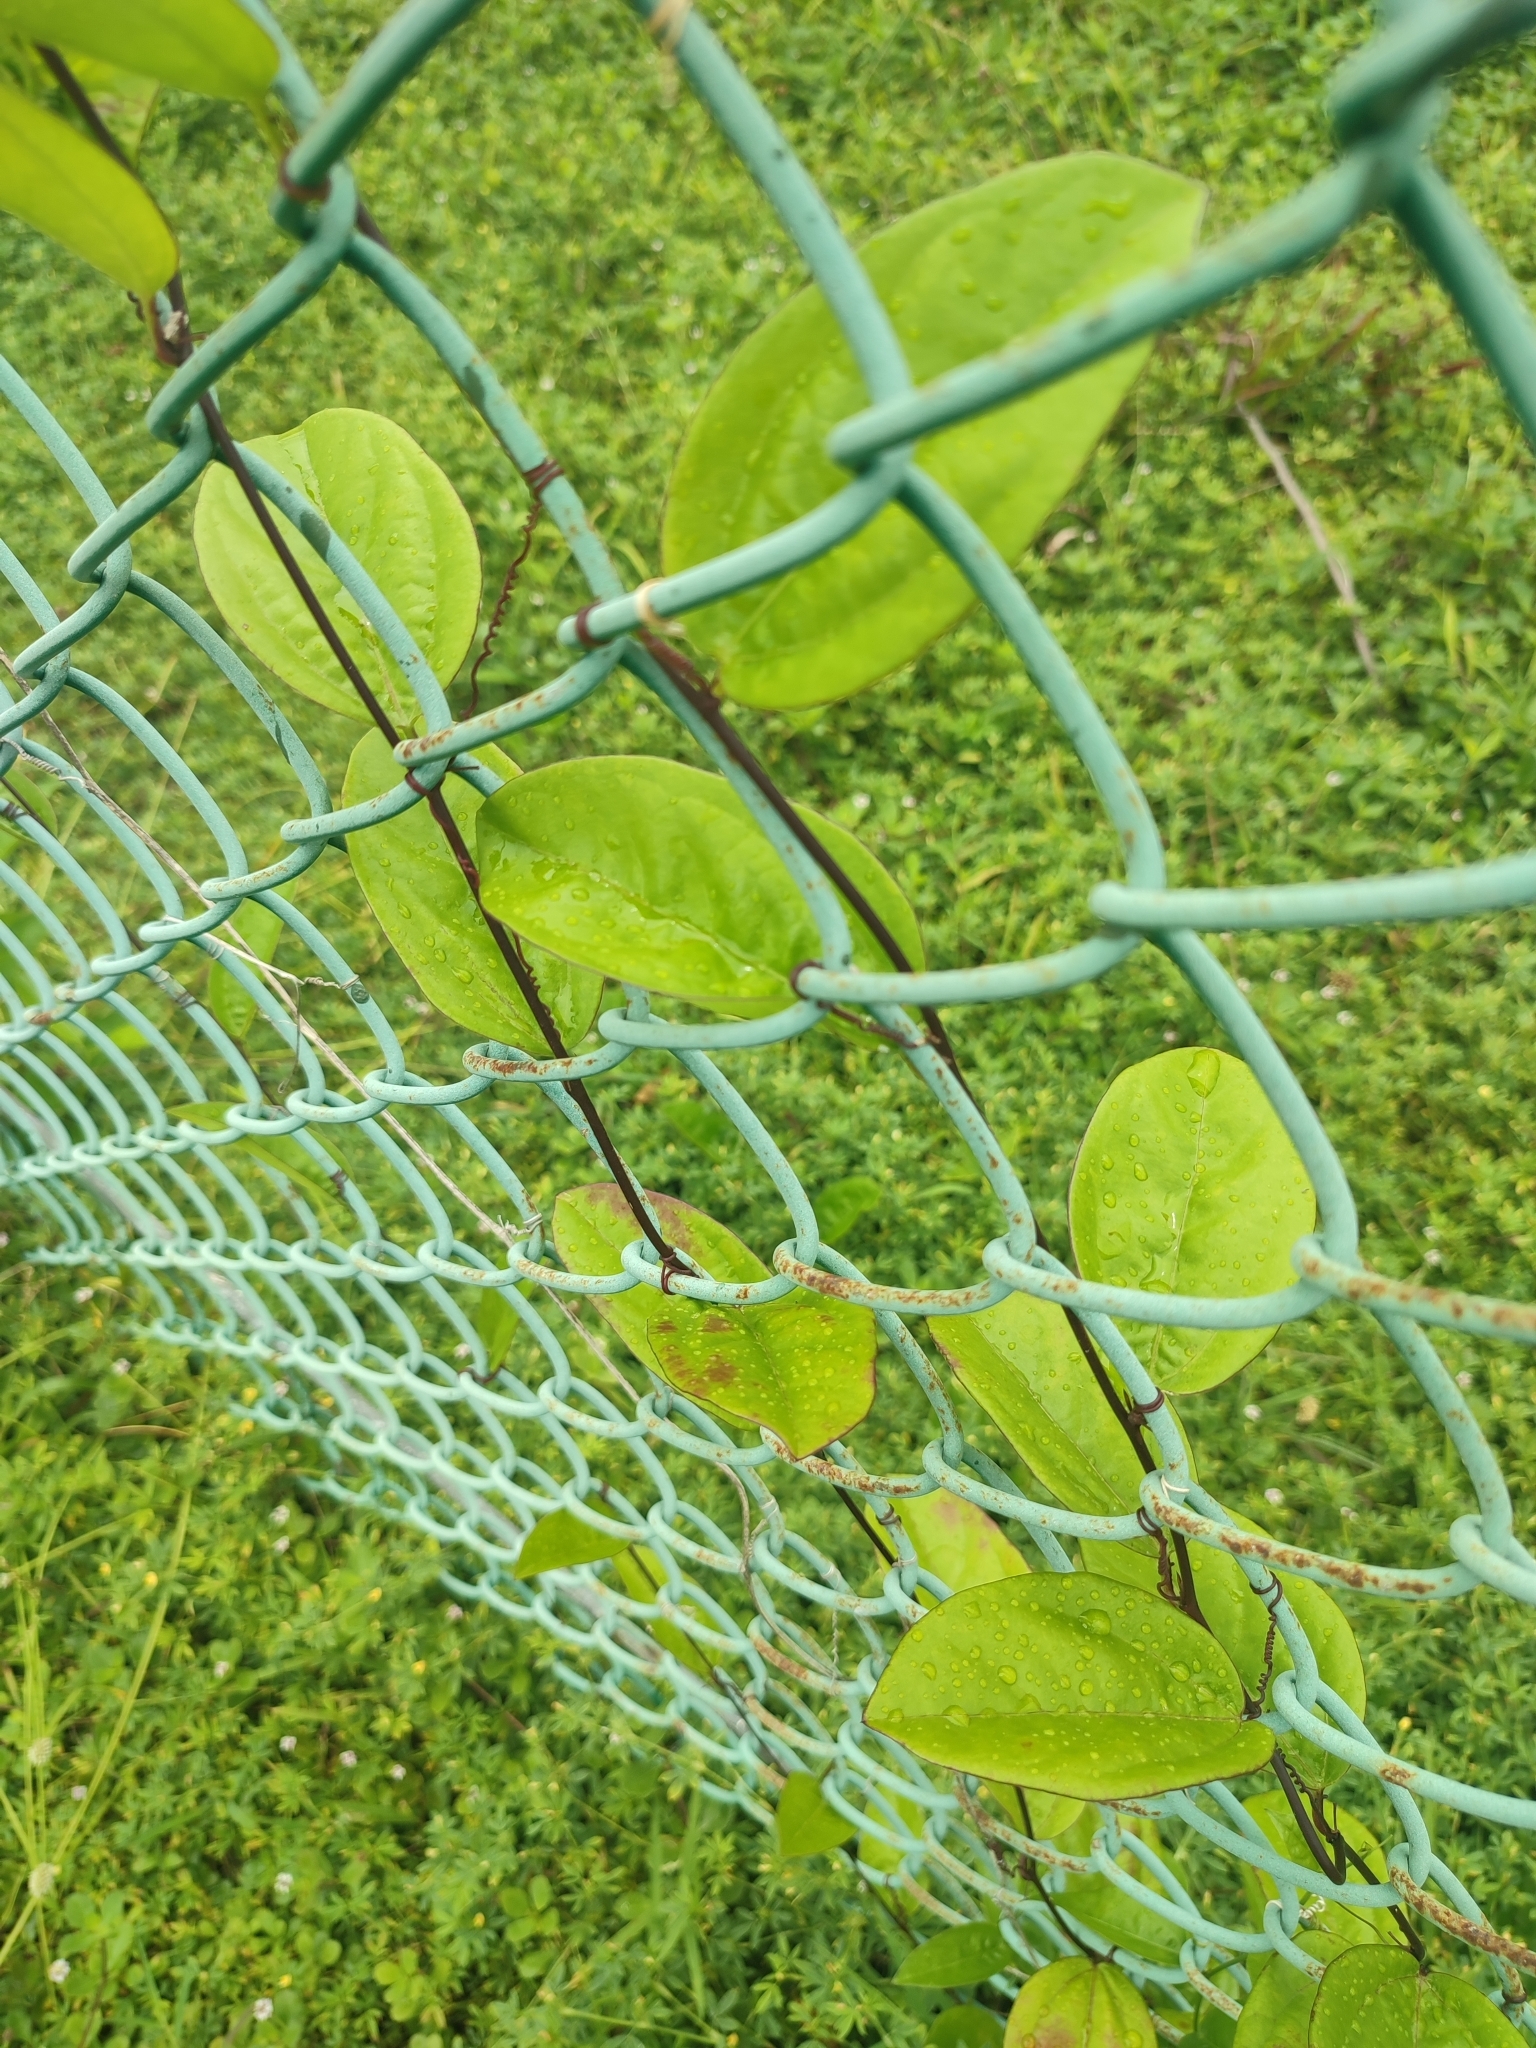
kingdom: Plantae
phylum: Tracheophyta
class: Magnoliopsida
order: Malpighiales
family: Passifloraceae
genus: Passiflora
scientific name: Passiflora pallida
